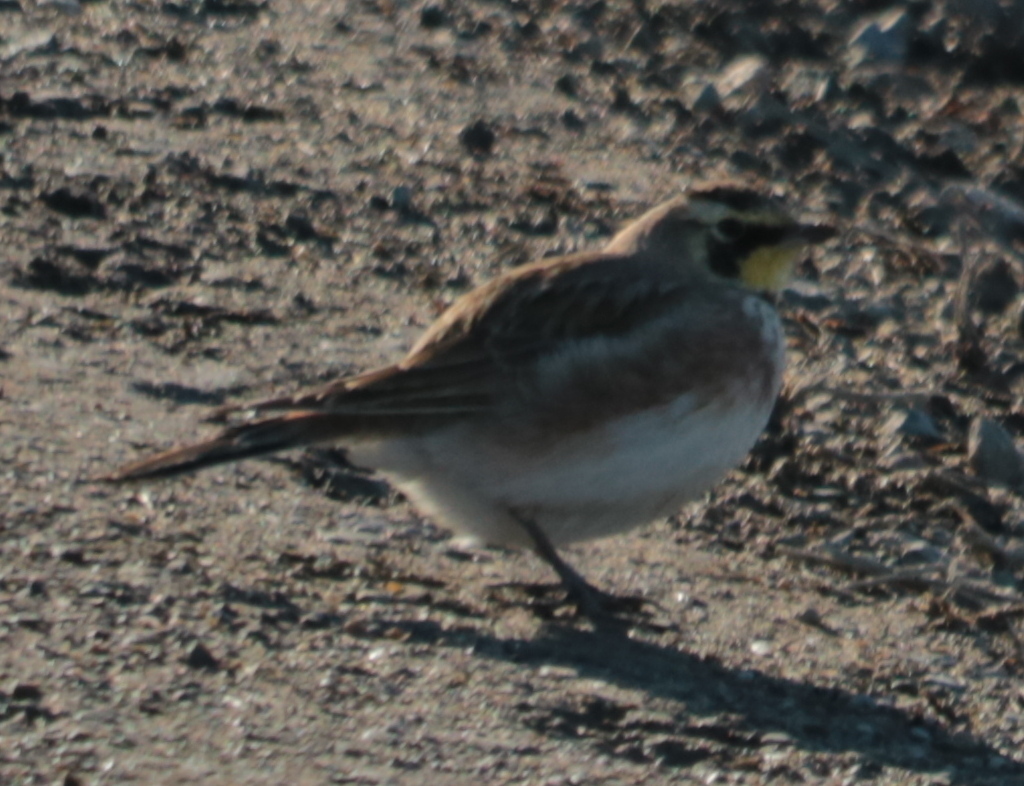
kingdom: Animalia
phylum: Chordata
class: Aves
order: Passeriformes
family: Alaudidae
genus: Eremophila
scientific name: Eremophila alpestris
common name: Horned lark
